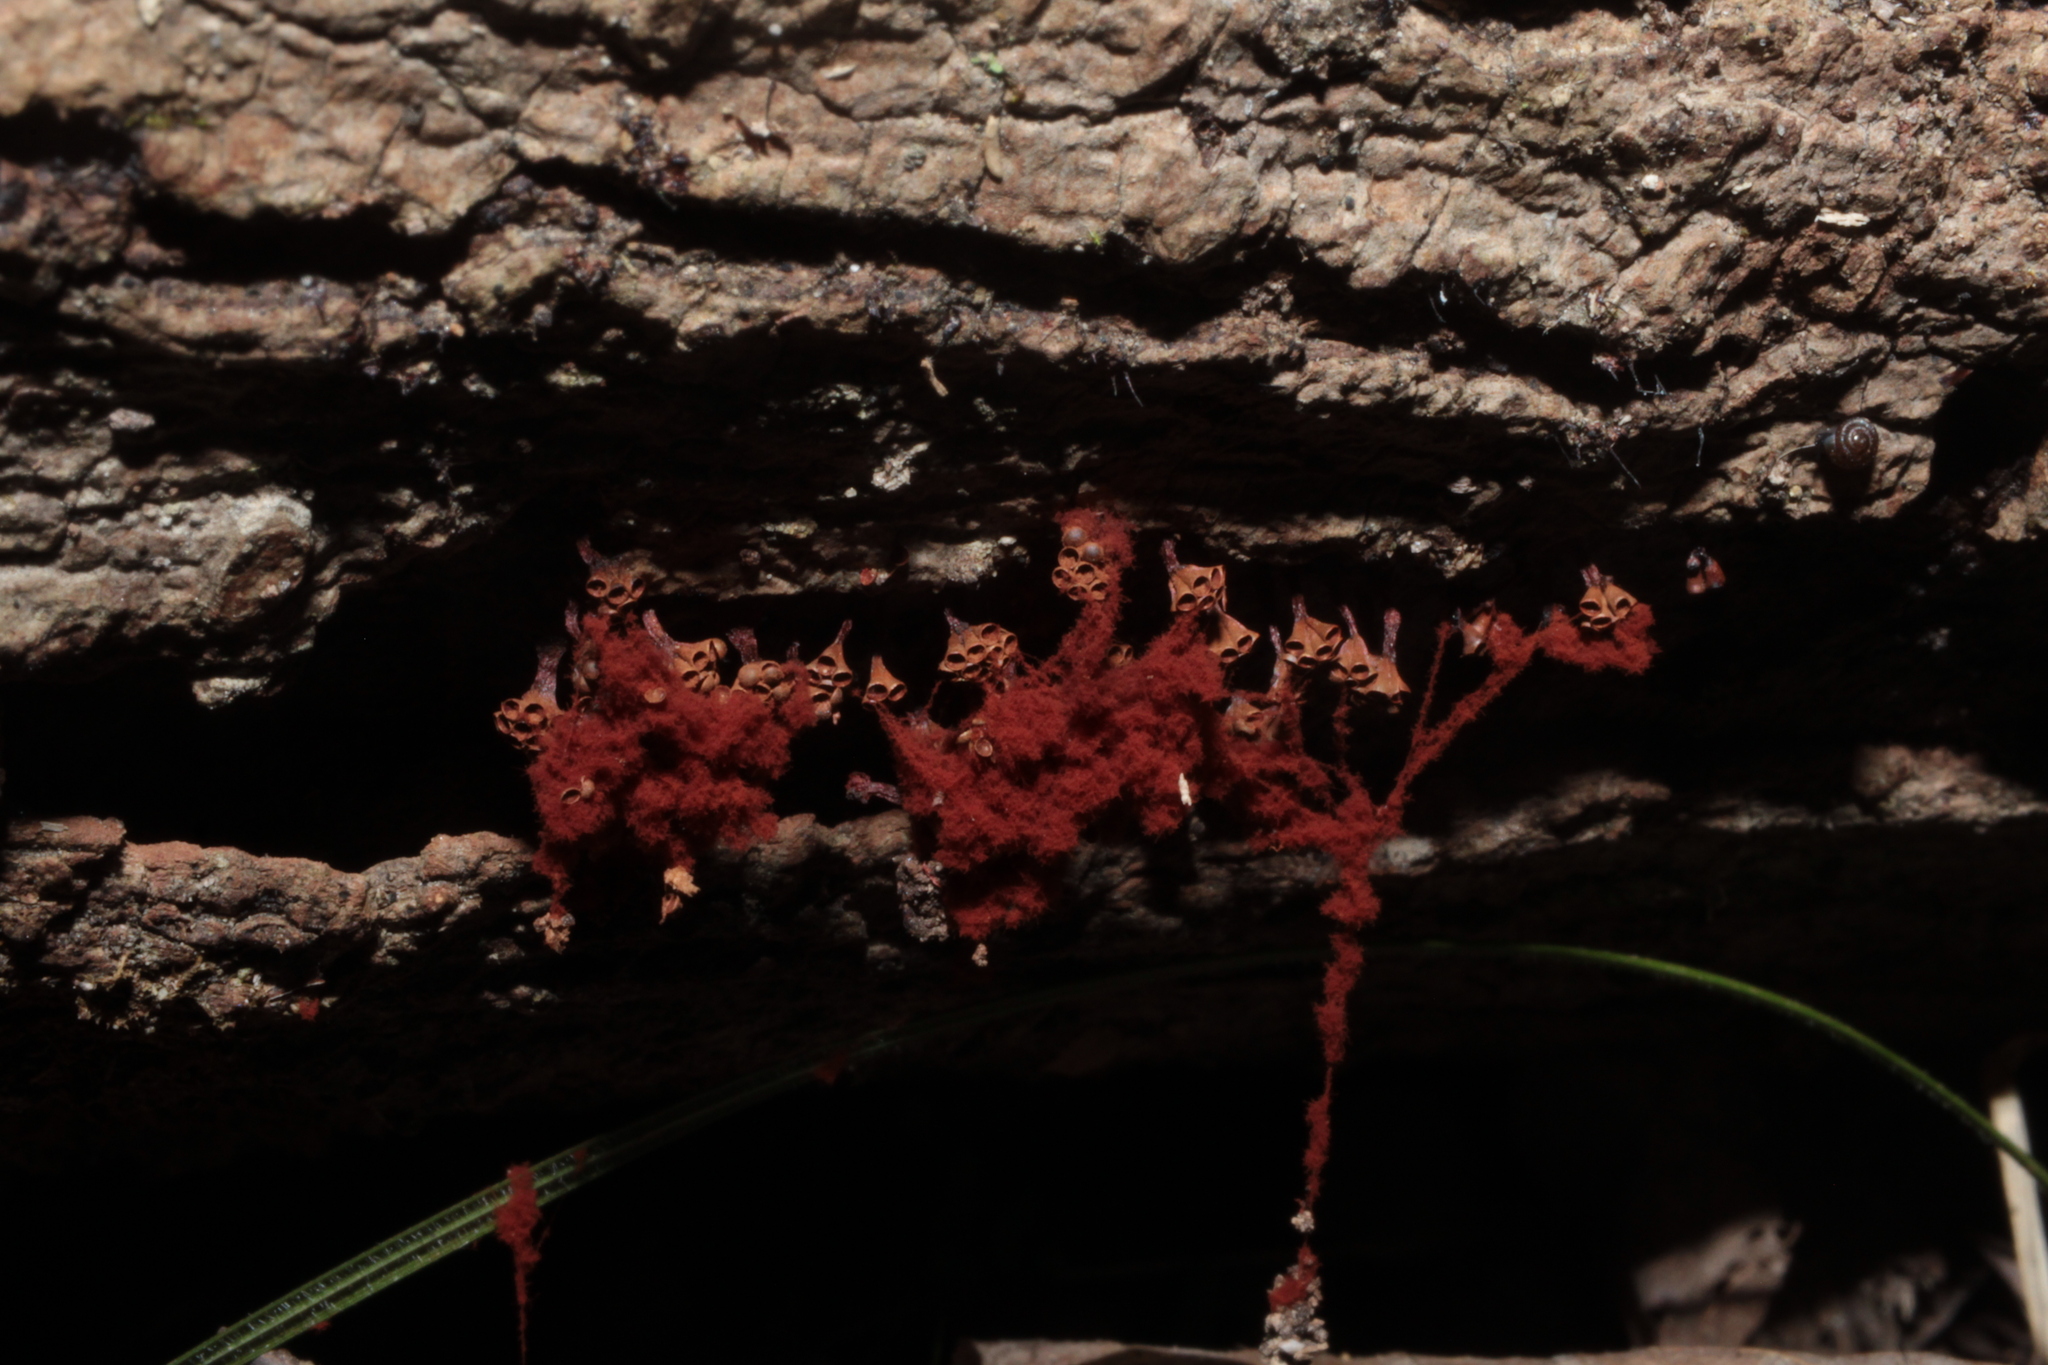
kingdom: Protozoa
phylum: Mycetozoa
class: Myxomycetes
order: Trichiales
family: Trichiaceae
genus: Metatrichia
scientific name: Metatrichia vesparia
